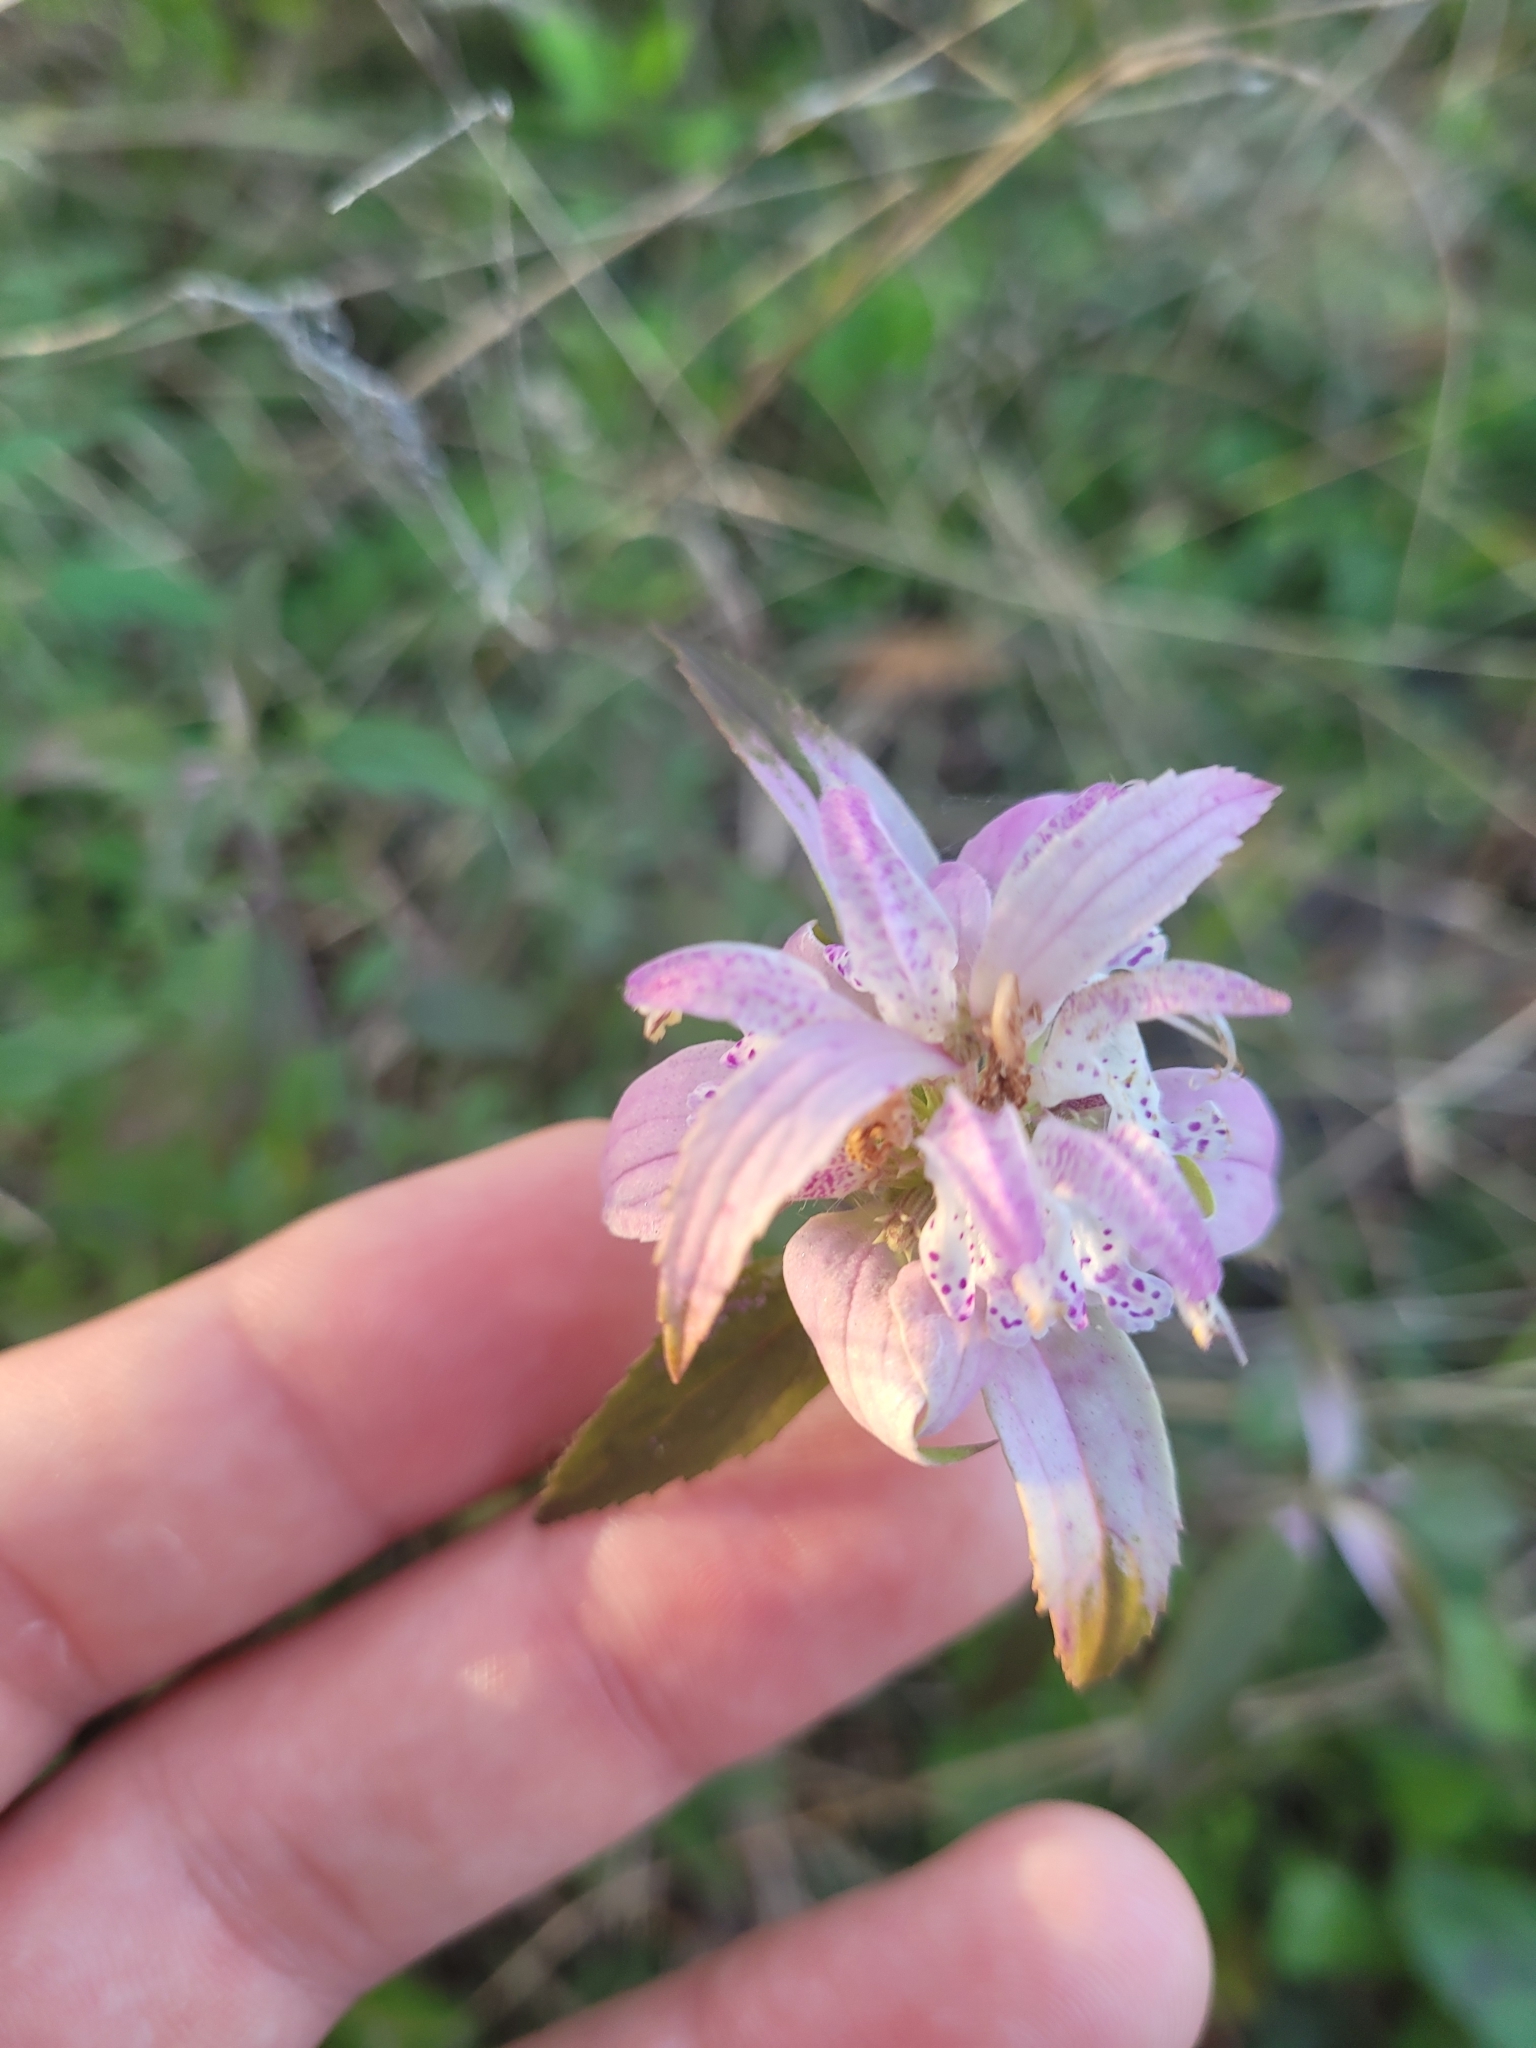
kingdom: Plantae
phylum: Tracheophyta
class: Magnoliopsida
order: Lamiales
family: Lamiaceae
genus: Monarda
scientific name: Monarda punctata
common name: Dotted monarda
